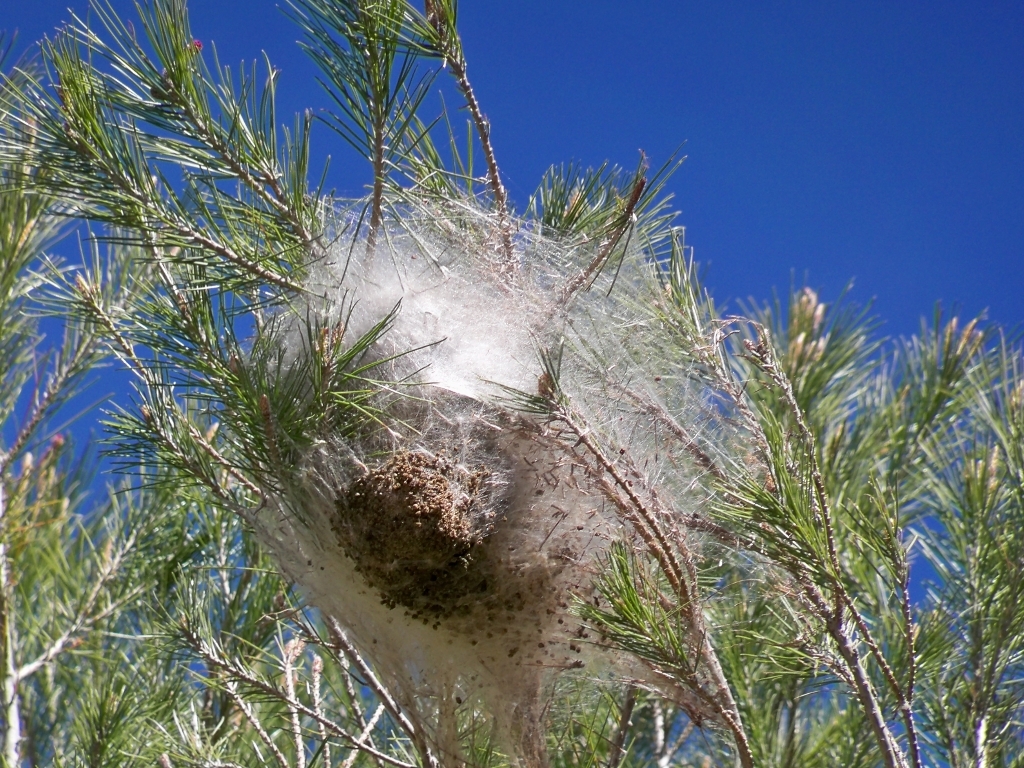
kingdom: Animalia
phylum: Arthropoda
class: Insecta
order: Lepidoptera
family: Notodontidae
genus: Thaumetopoea
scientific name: Thaumetopoea pityocampa
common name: Pine processionary
